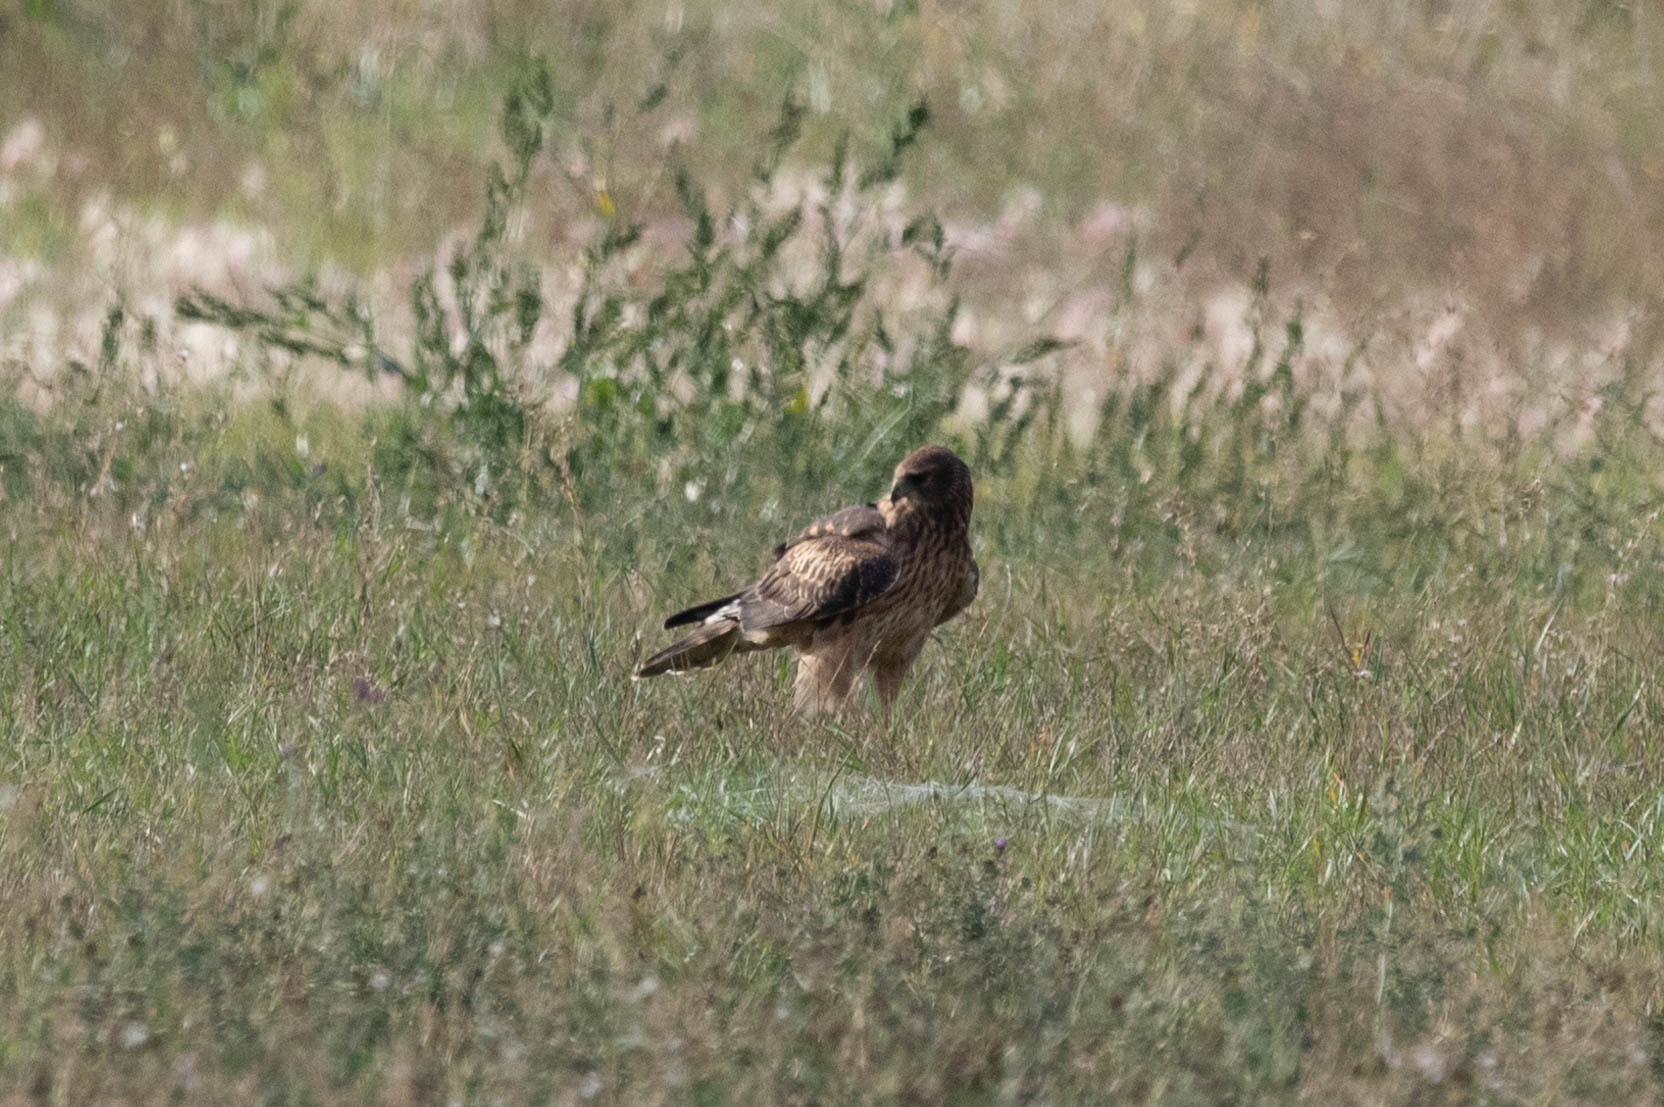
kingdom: Animalia
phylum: Chordata
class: Aves
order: Accipitriformes
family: Accipitridae
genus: Circus
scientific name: Circus cyaneus
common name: Hen harrier
